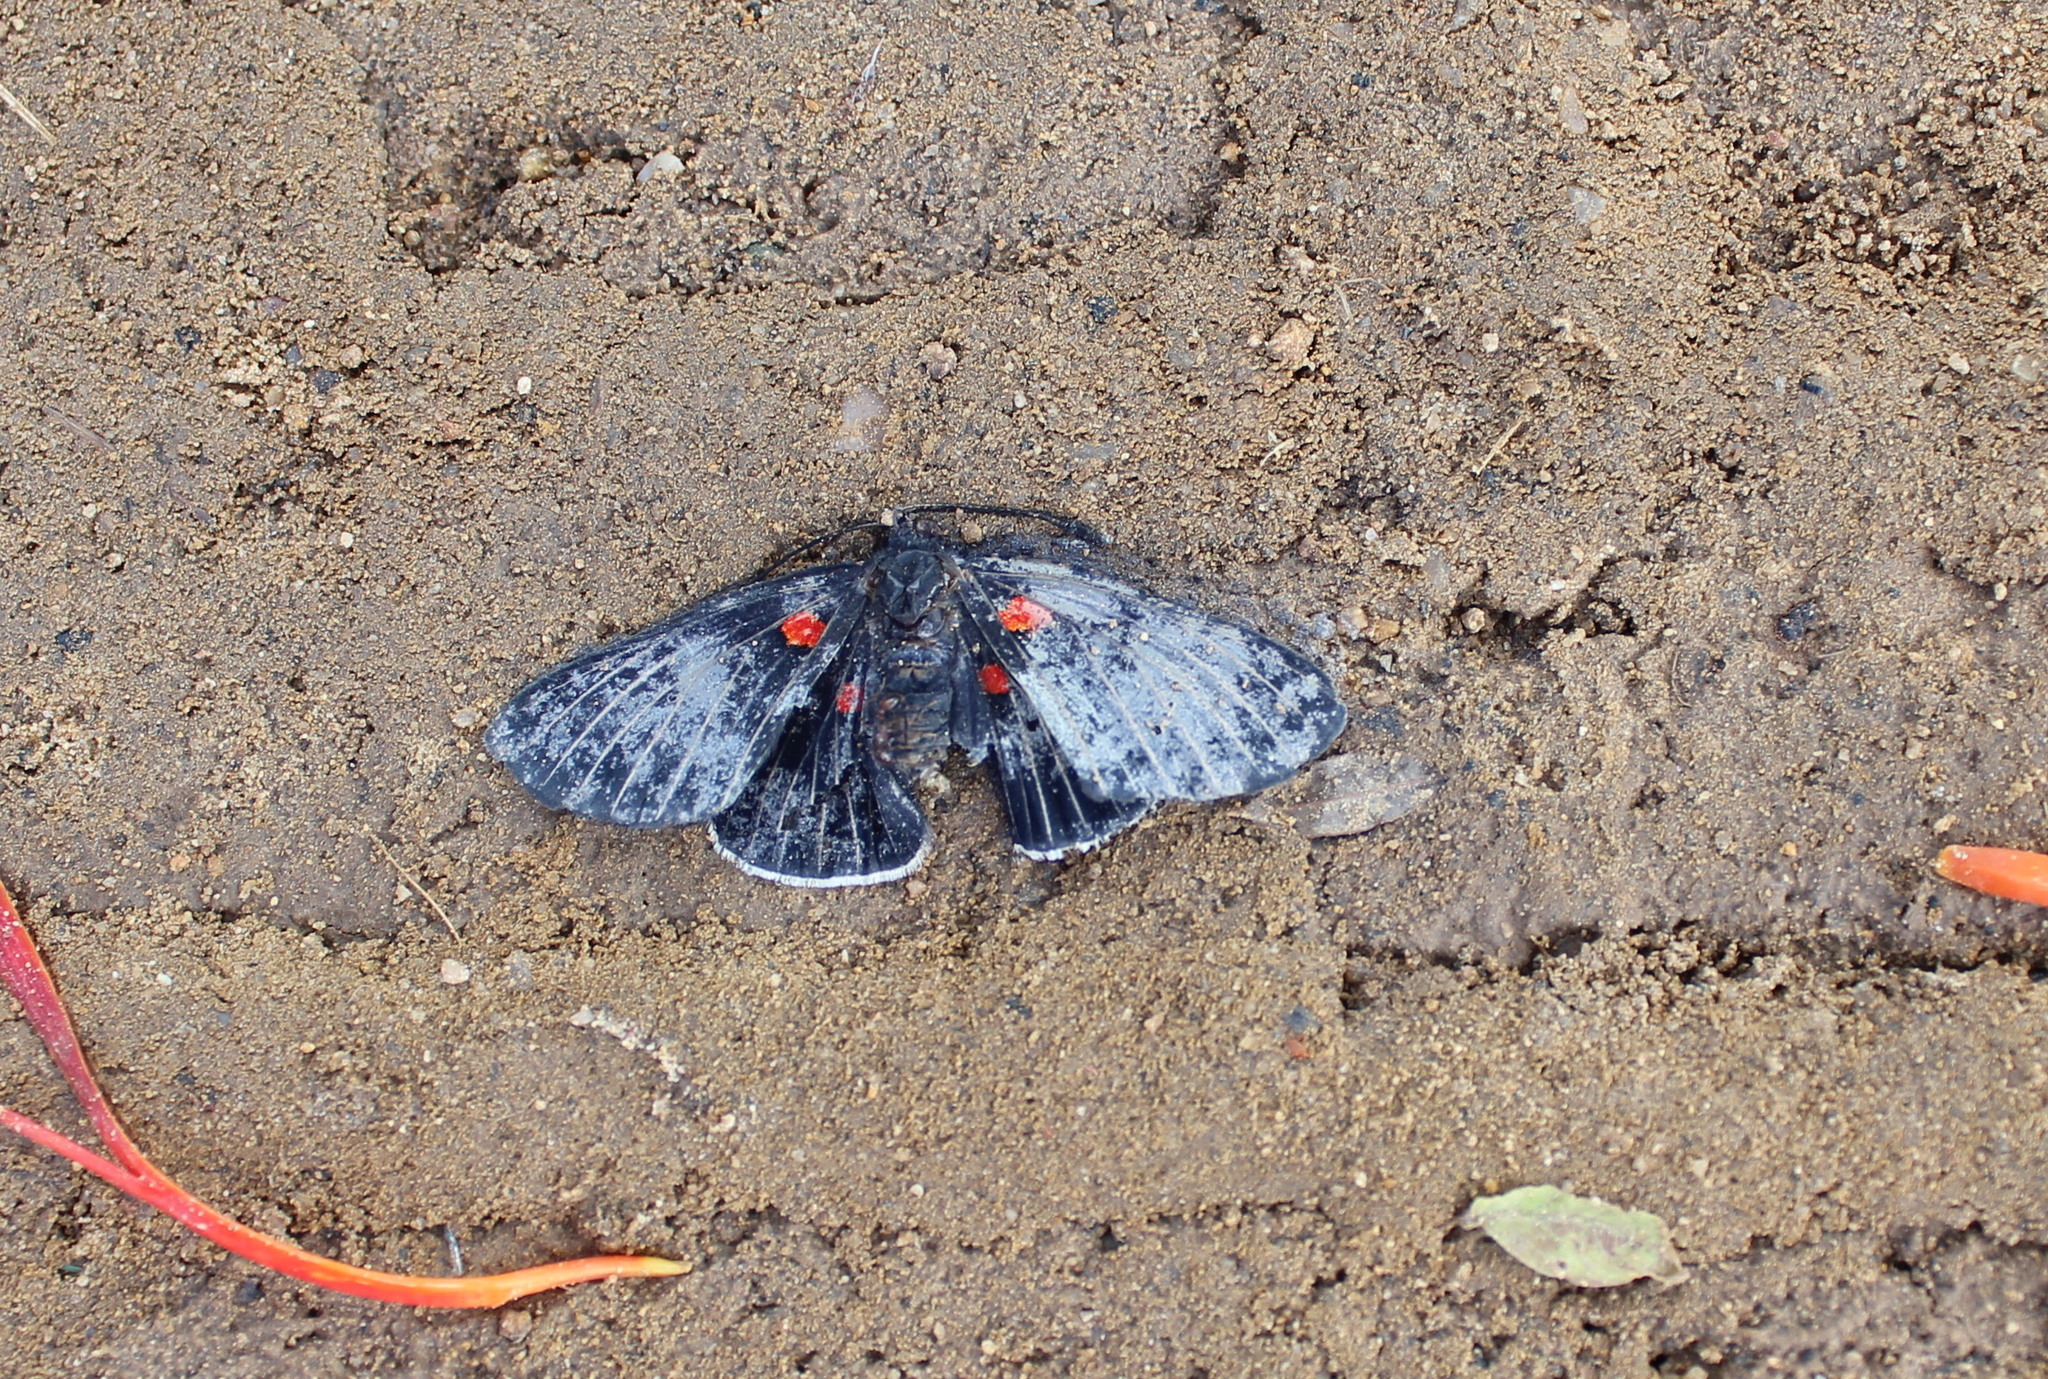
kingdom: Animalia
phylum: Arthropoda
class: Insecta
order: Lepidoptera
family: Lycaenidae
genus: Melanis
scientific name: Melanis
